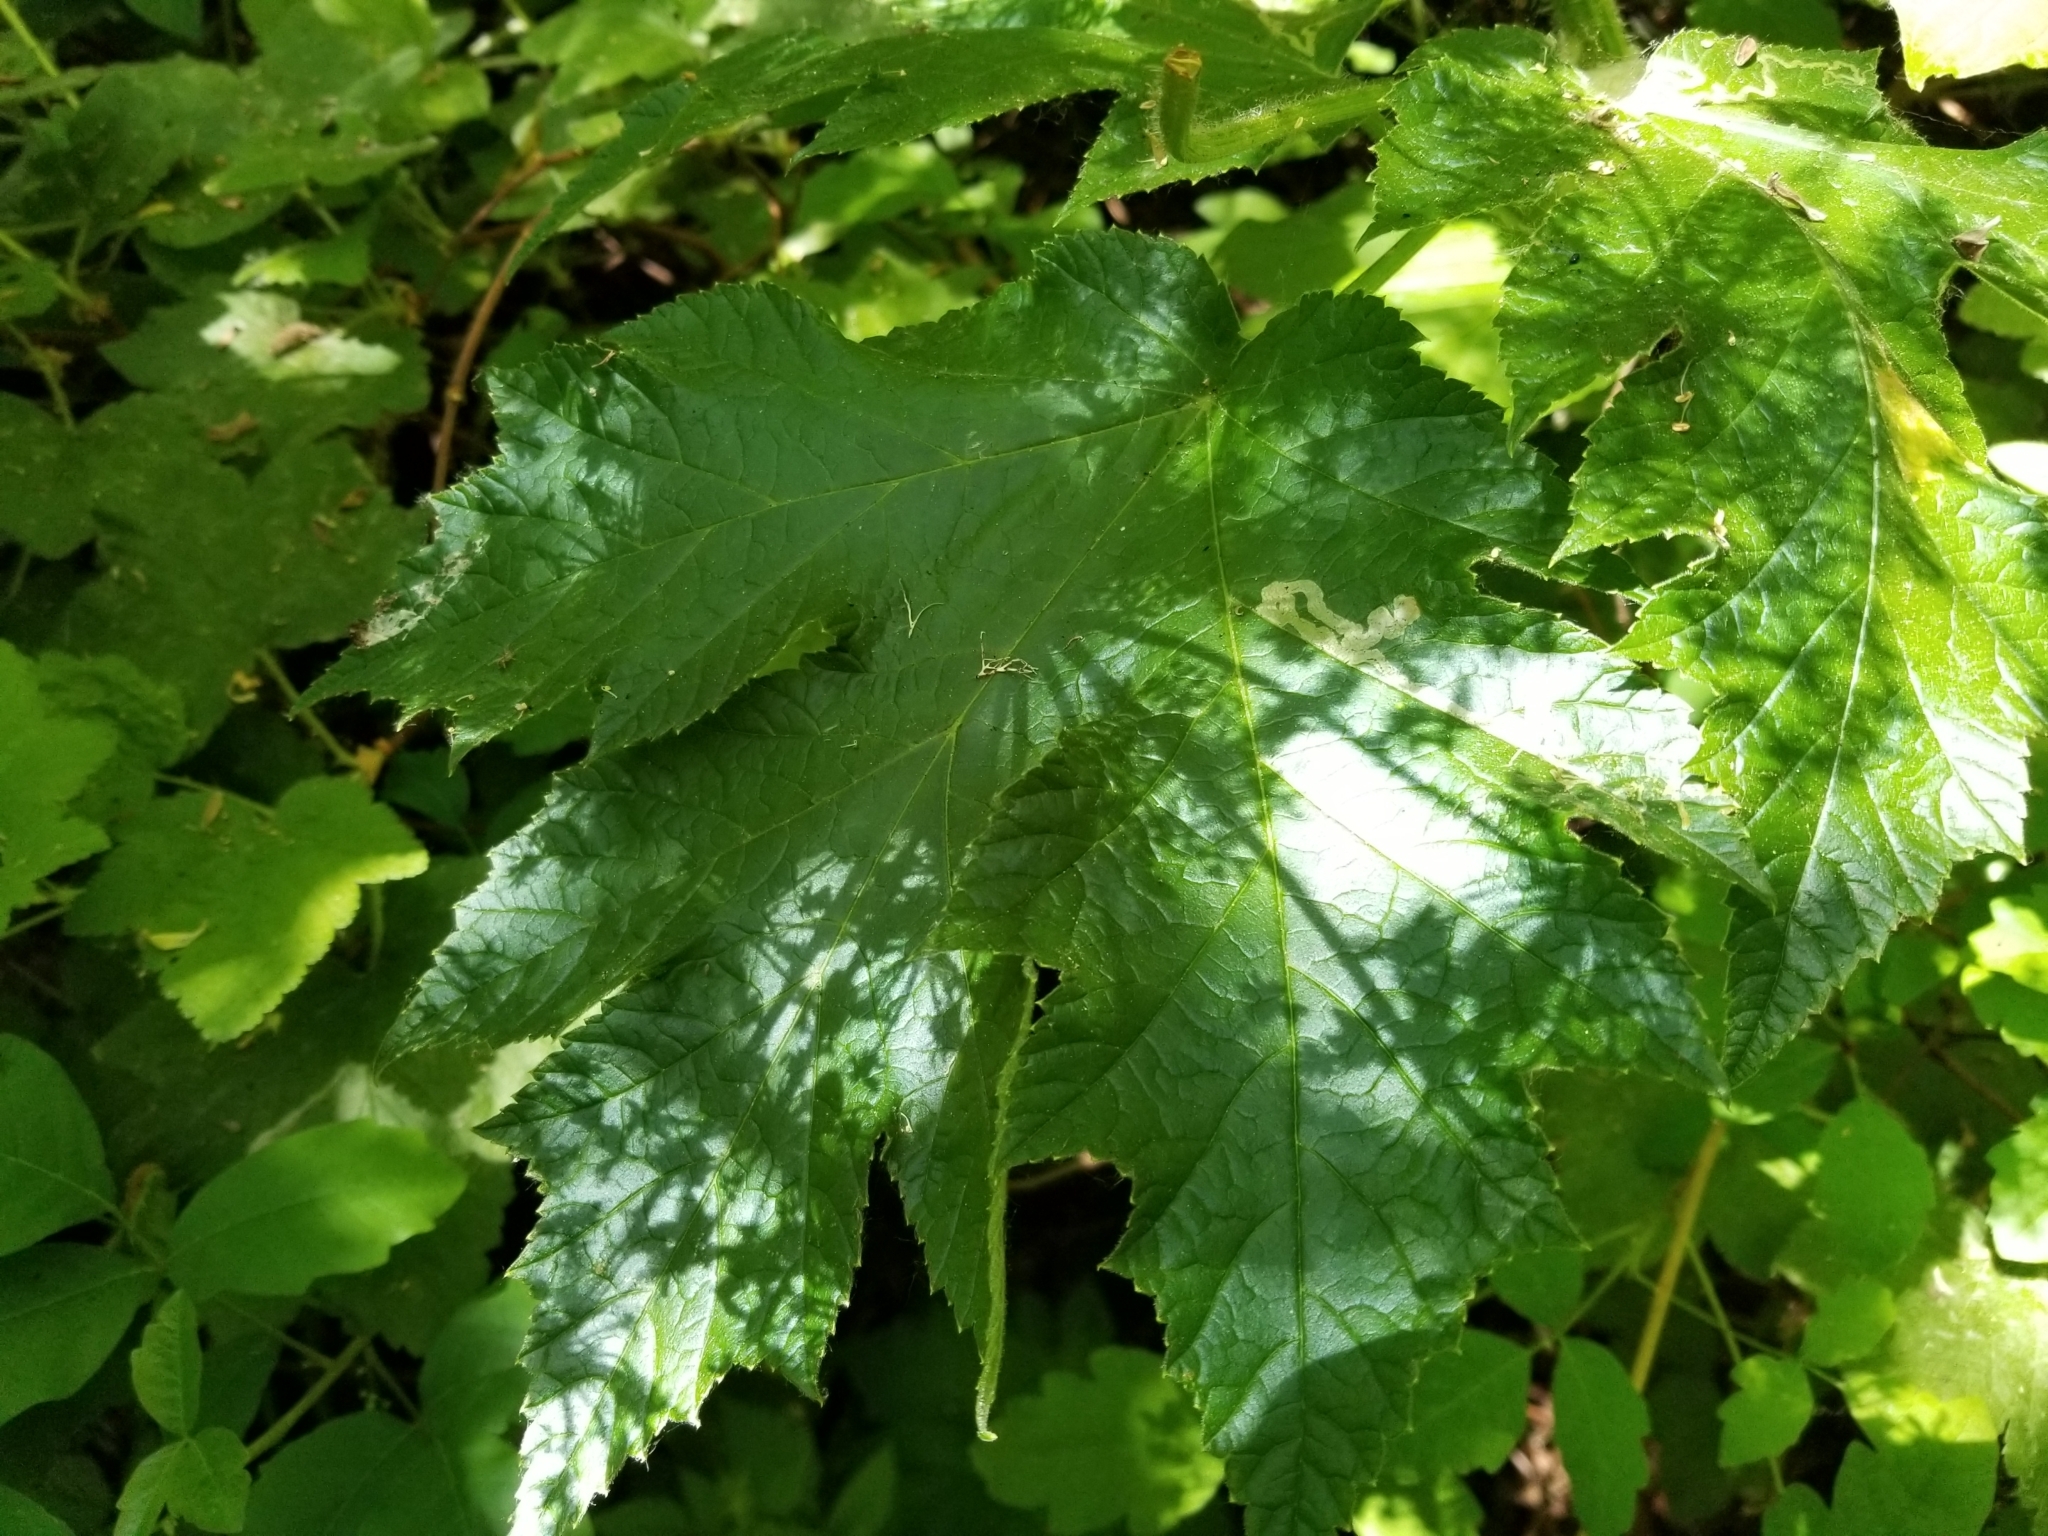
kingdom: Plantae
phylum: Tracheophyta
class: Magnoliopsida
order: Apiales
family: Apiaceae
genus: Heracleum
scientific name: Heracleum maximum
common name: American cow parsnip
